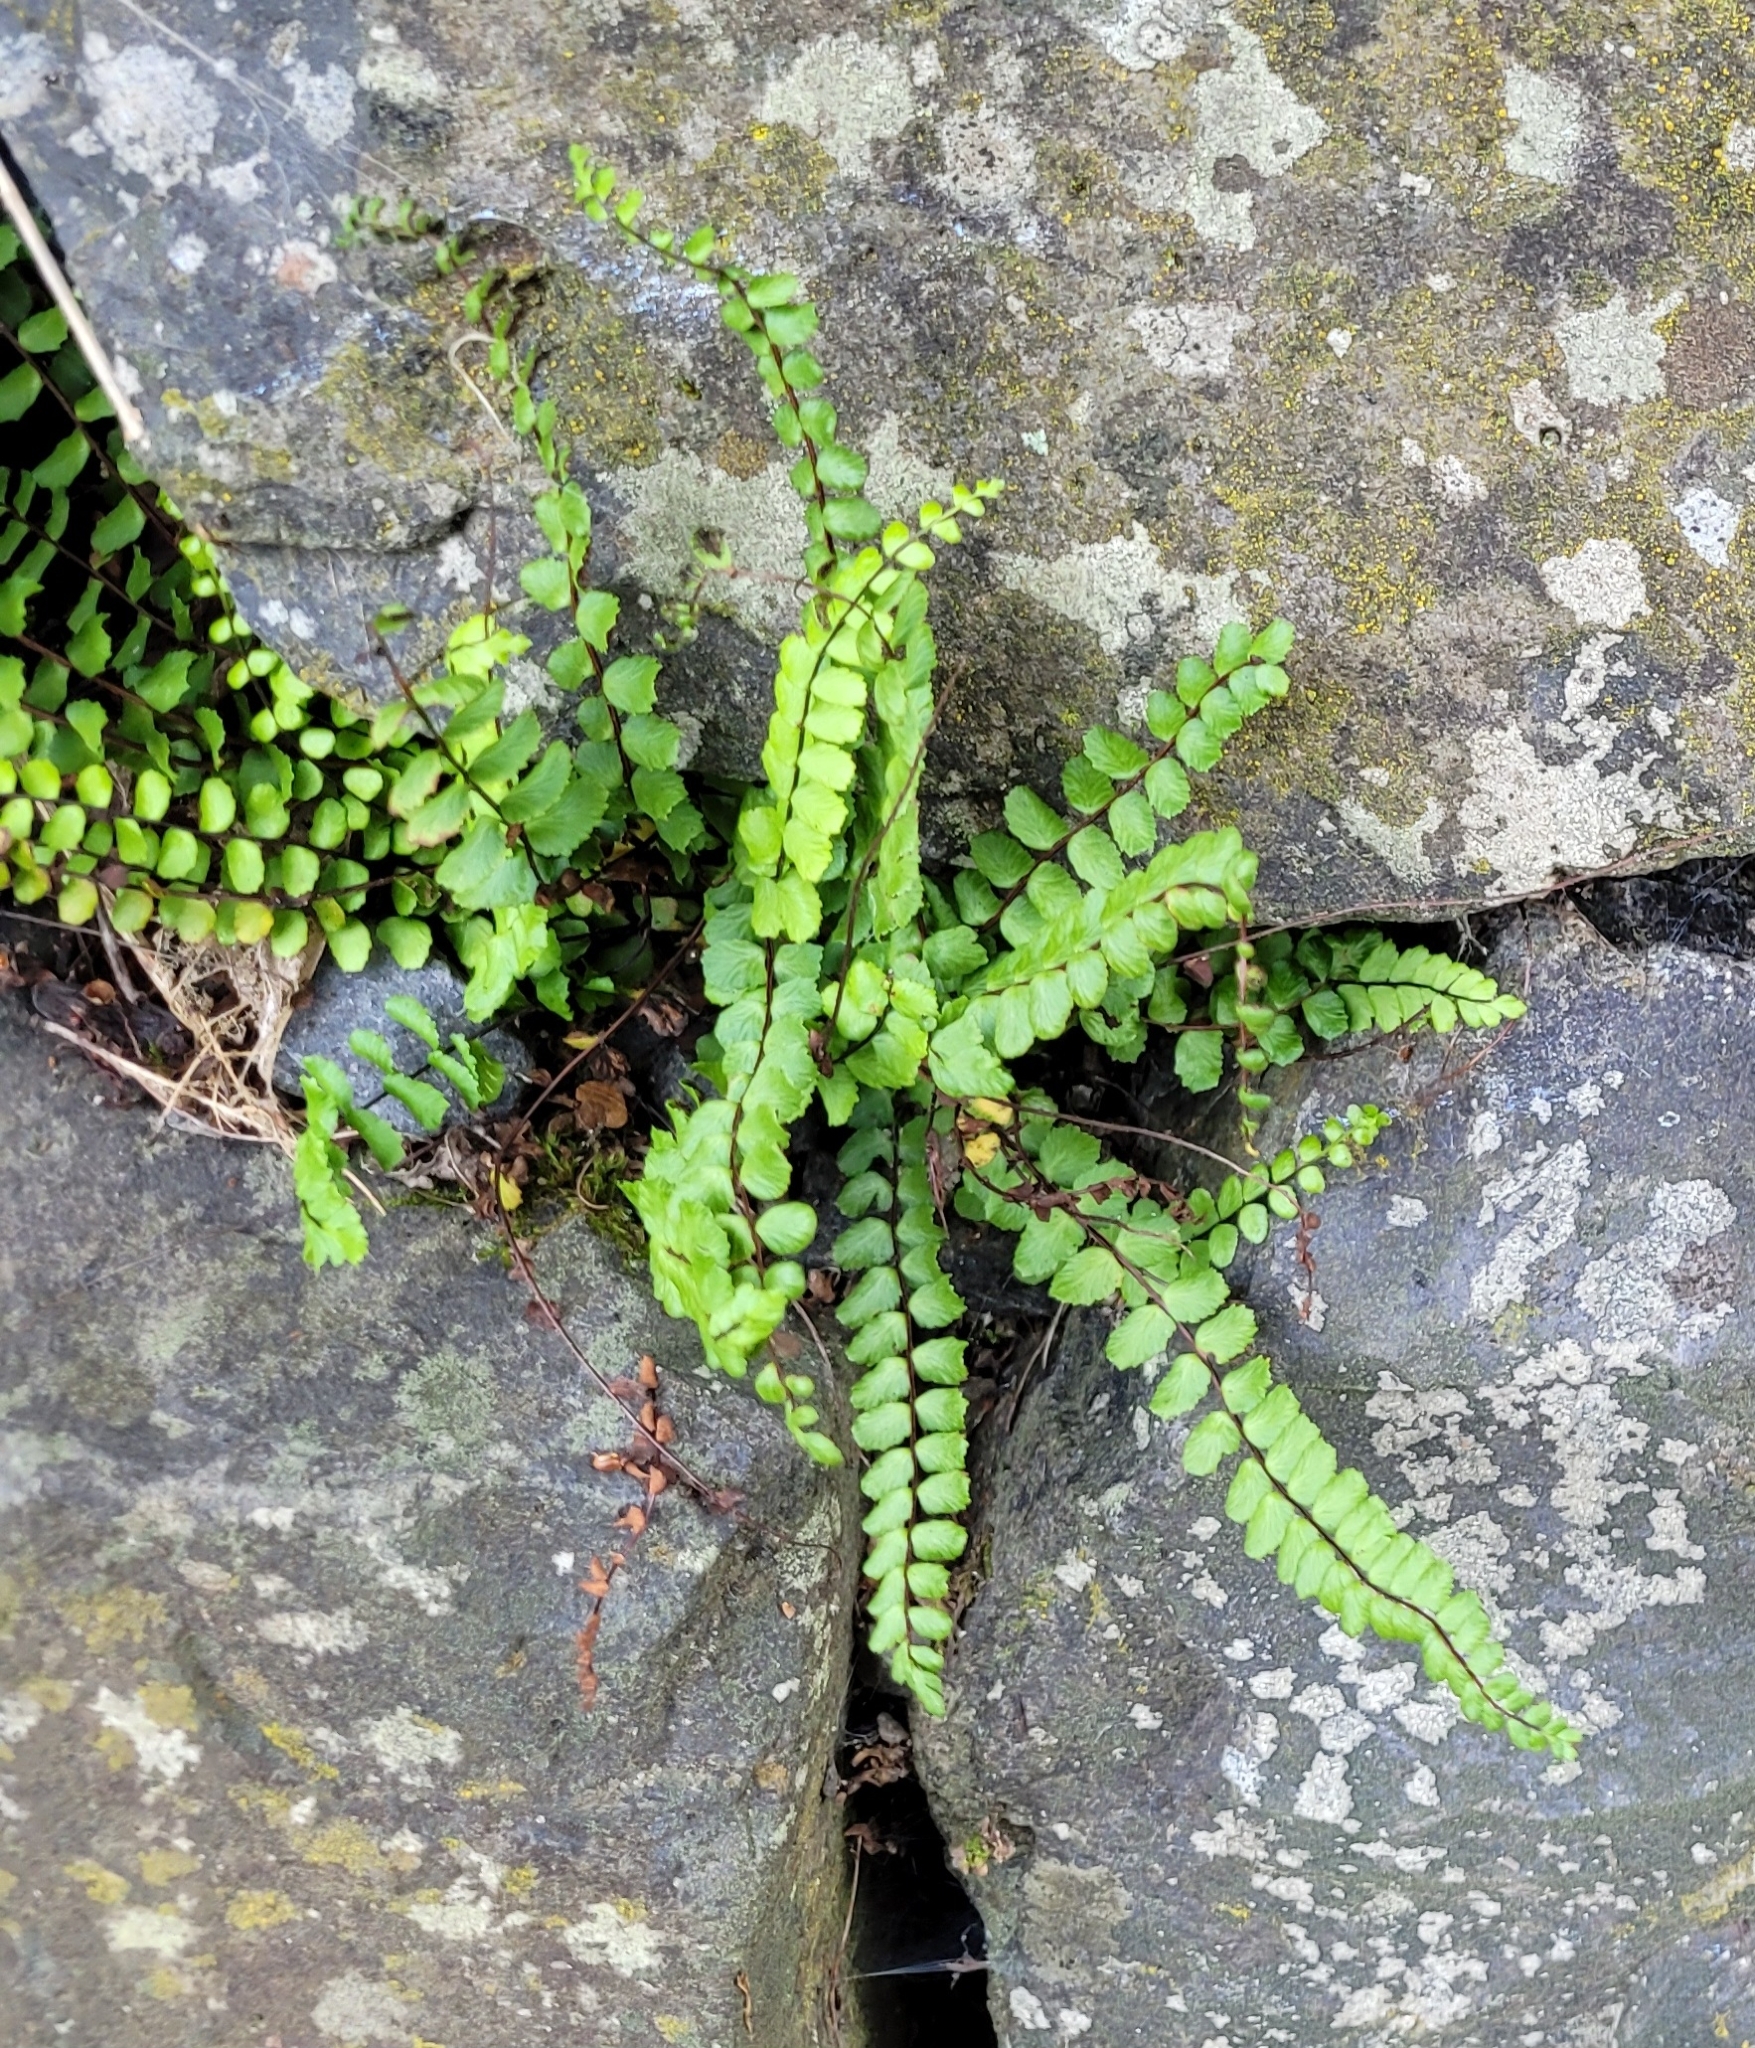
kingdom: Plantae
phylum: Tracheophyta
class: Polypodiopsida
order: Polypodiales
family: Aspleniaceae
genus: Asplenium
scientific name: Asplenium trichomanes
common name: Maidenhair spleenwort
